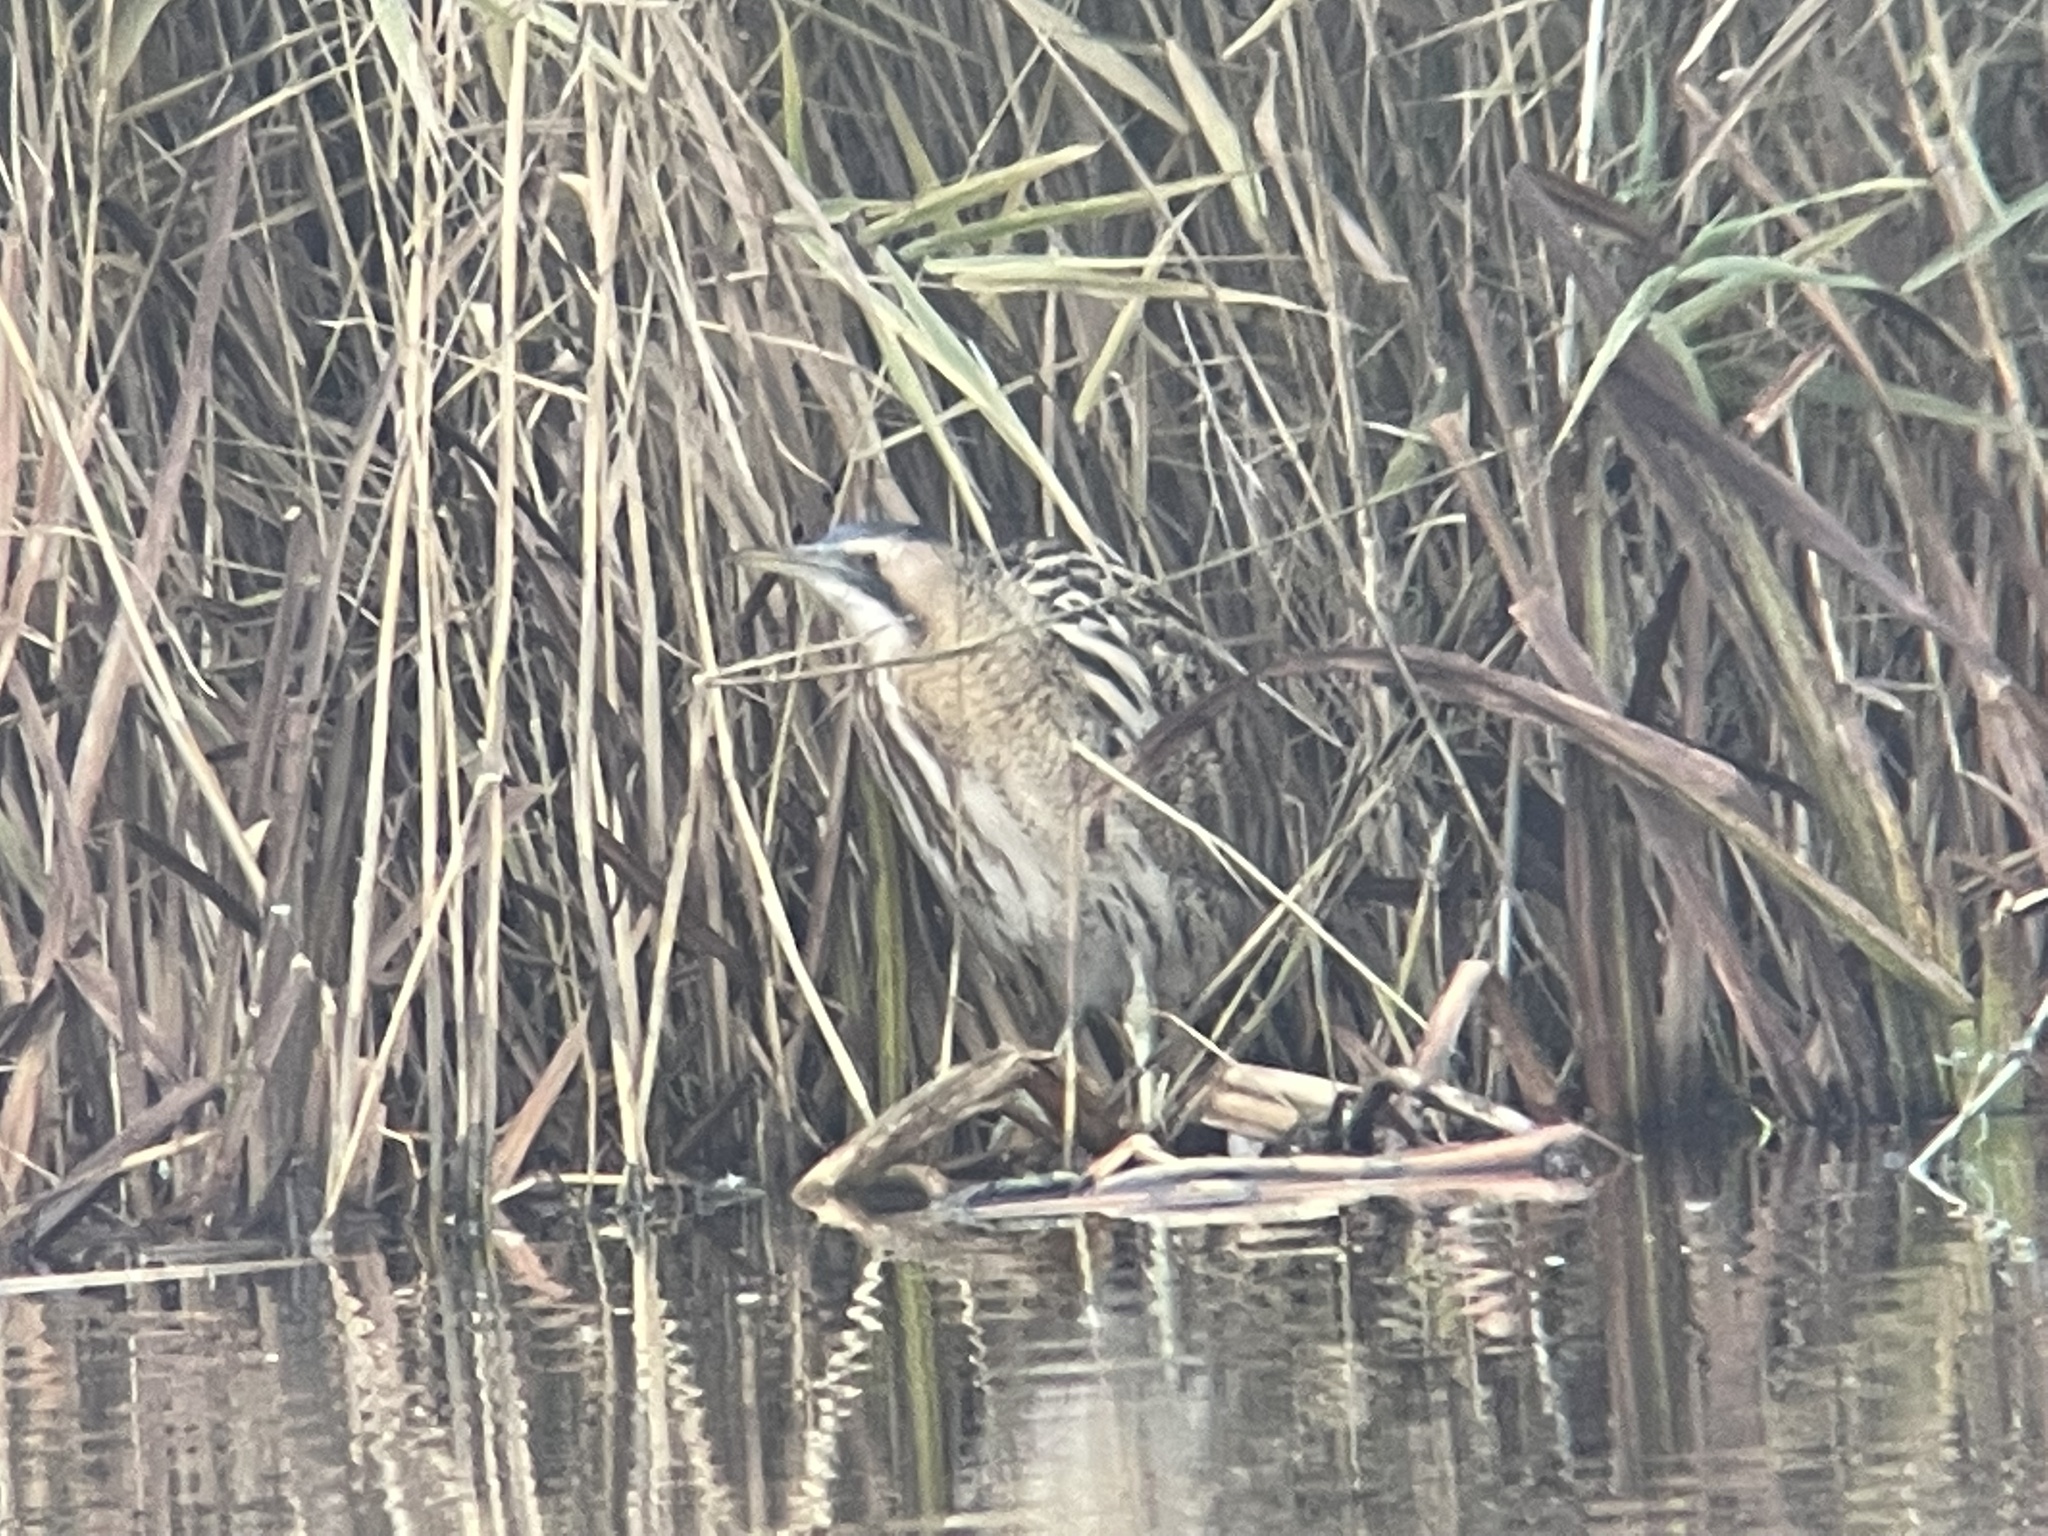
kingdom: Animalia
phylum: Chordata
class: Aves
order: Pelecaniformes
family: Ardeidae
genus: Botaurus
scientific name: Botaurus stellaris
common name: Eurasian bittern
